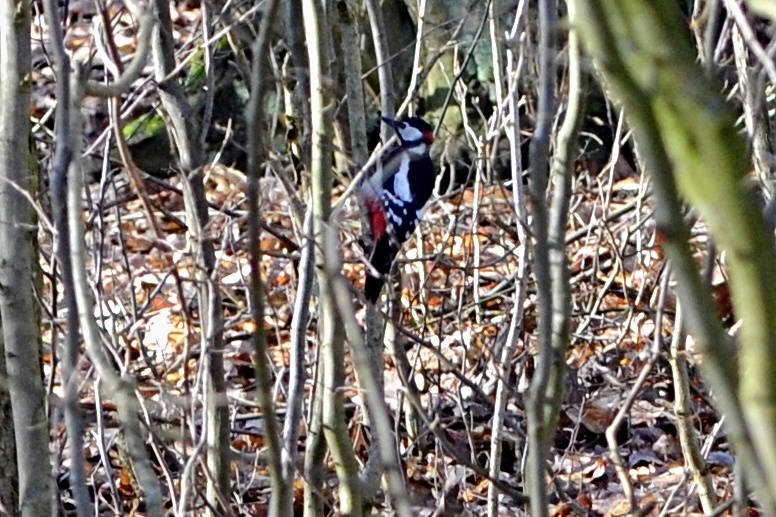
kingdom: Animalia
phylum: Chordata
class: Aves
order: Piciformes
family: Picidae
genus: Dendrocopos
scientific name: Dendrocopos major
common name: Great spotted woodpecker
